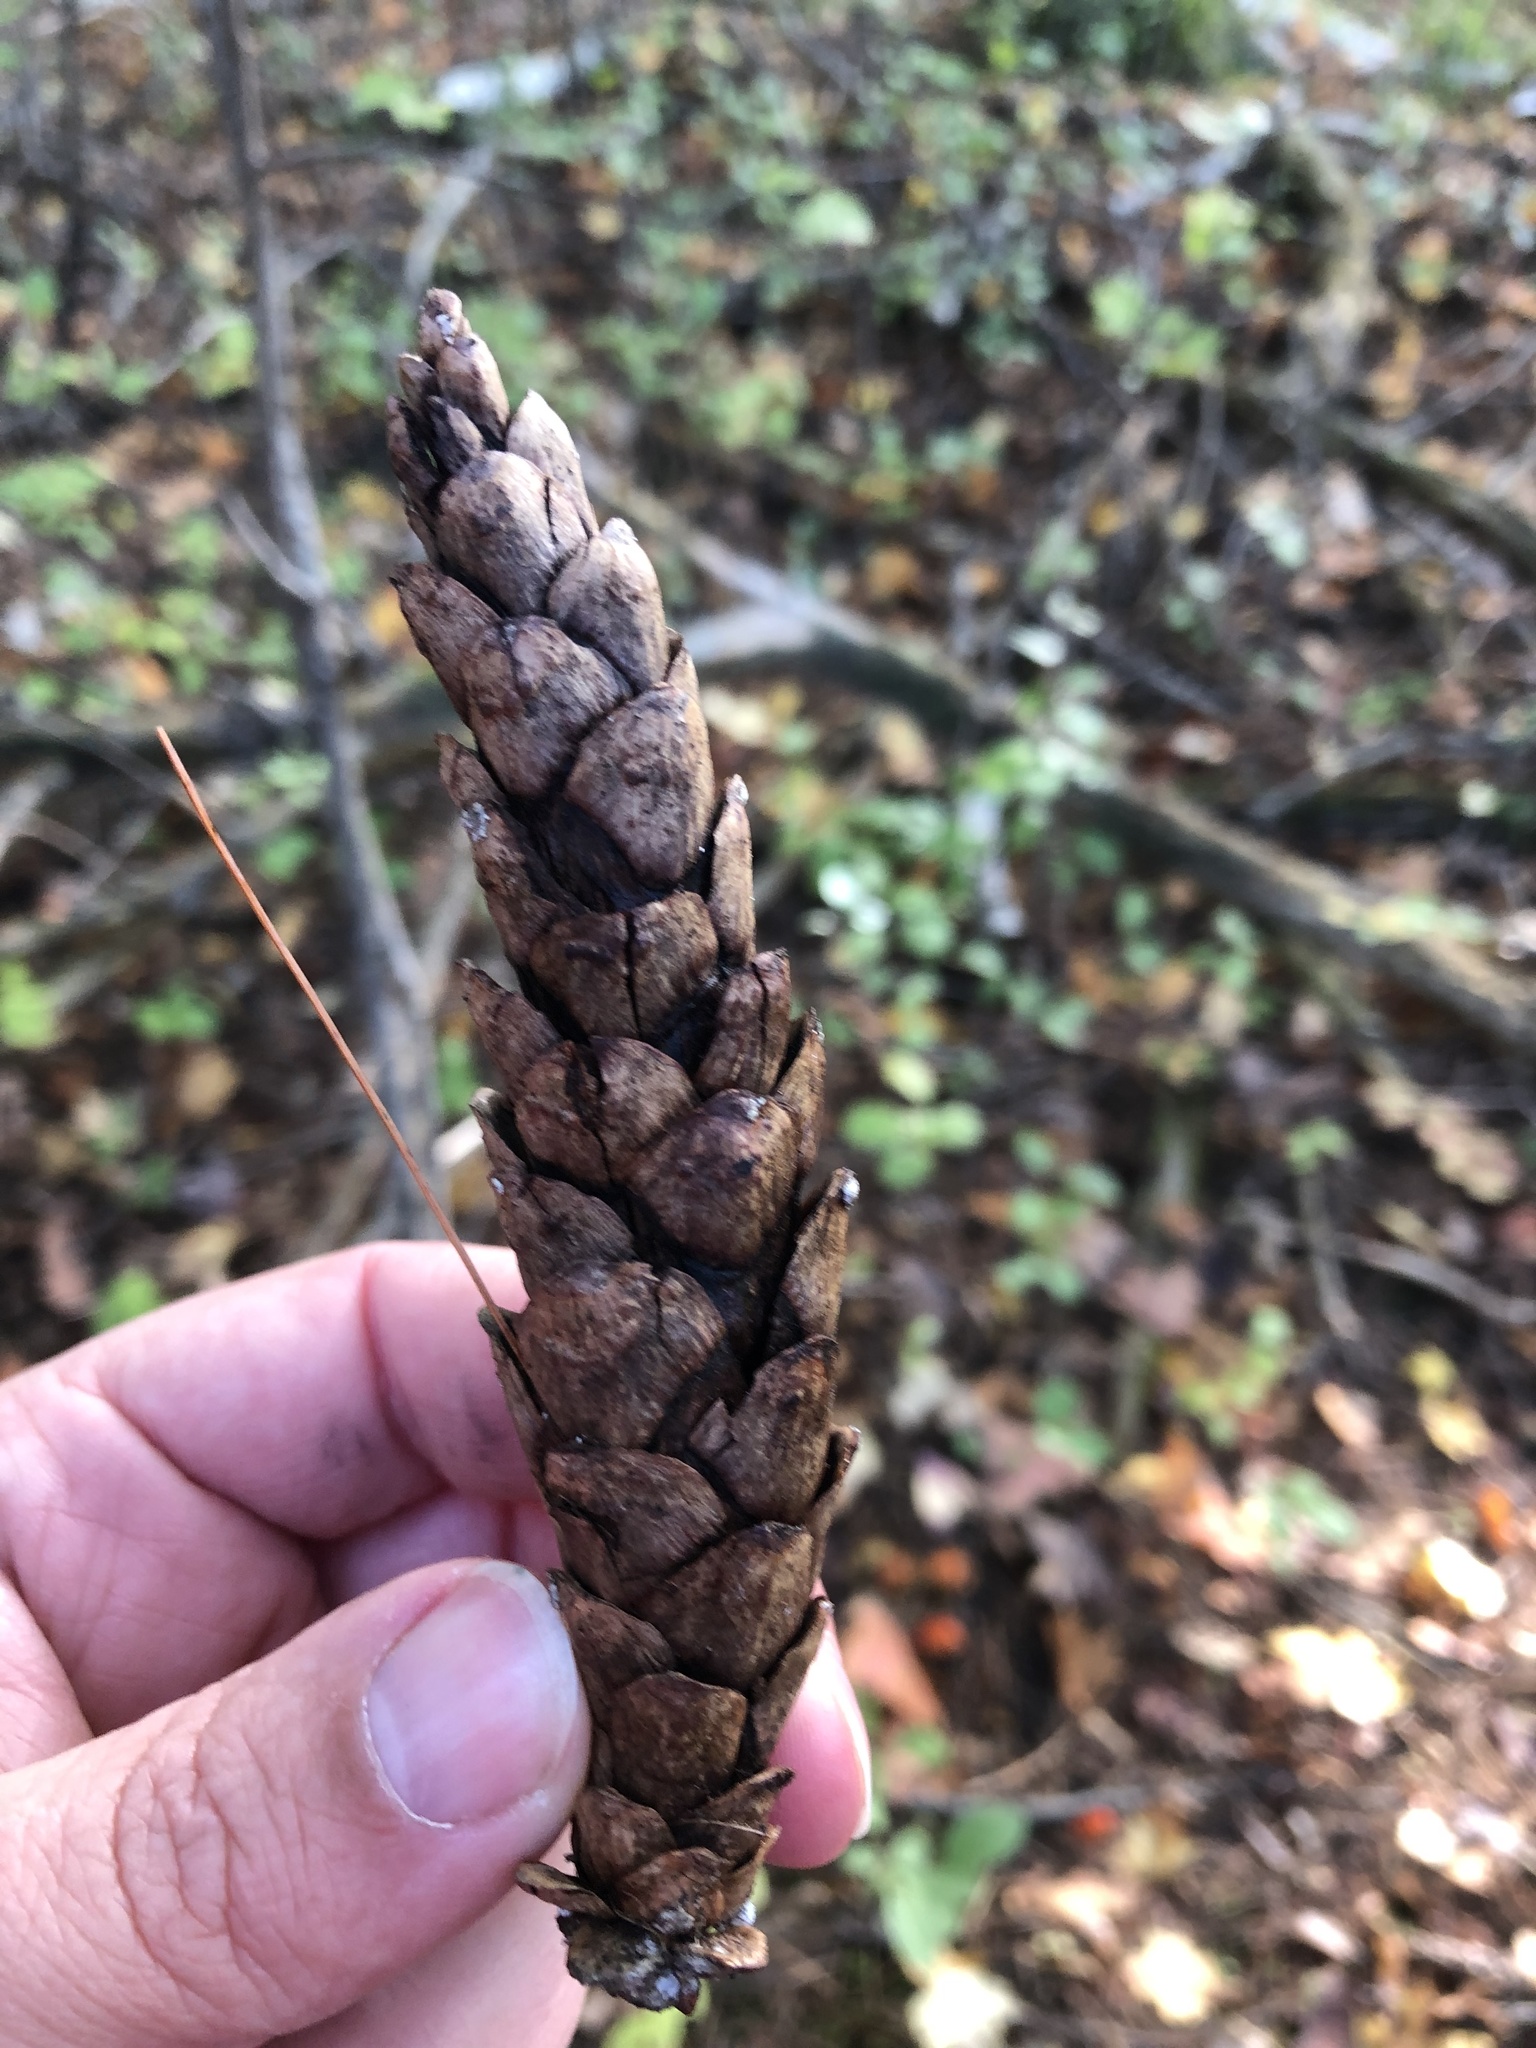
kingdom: Plantae
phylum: Tracheophyta
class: Pinopsida
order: Pinales
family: Pinaceae
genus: Pinus
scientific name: Pinus strobus
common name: Weymouth pine
